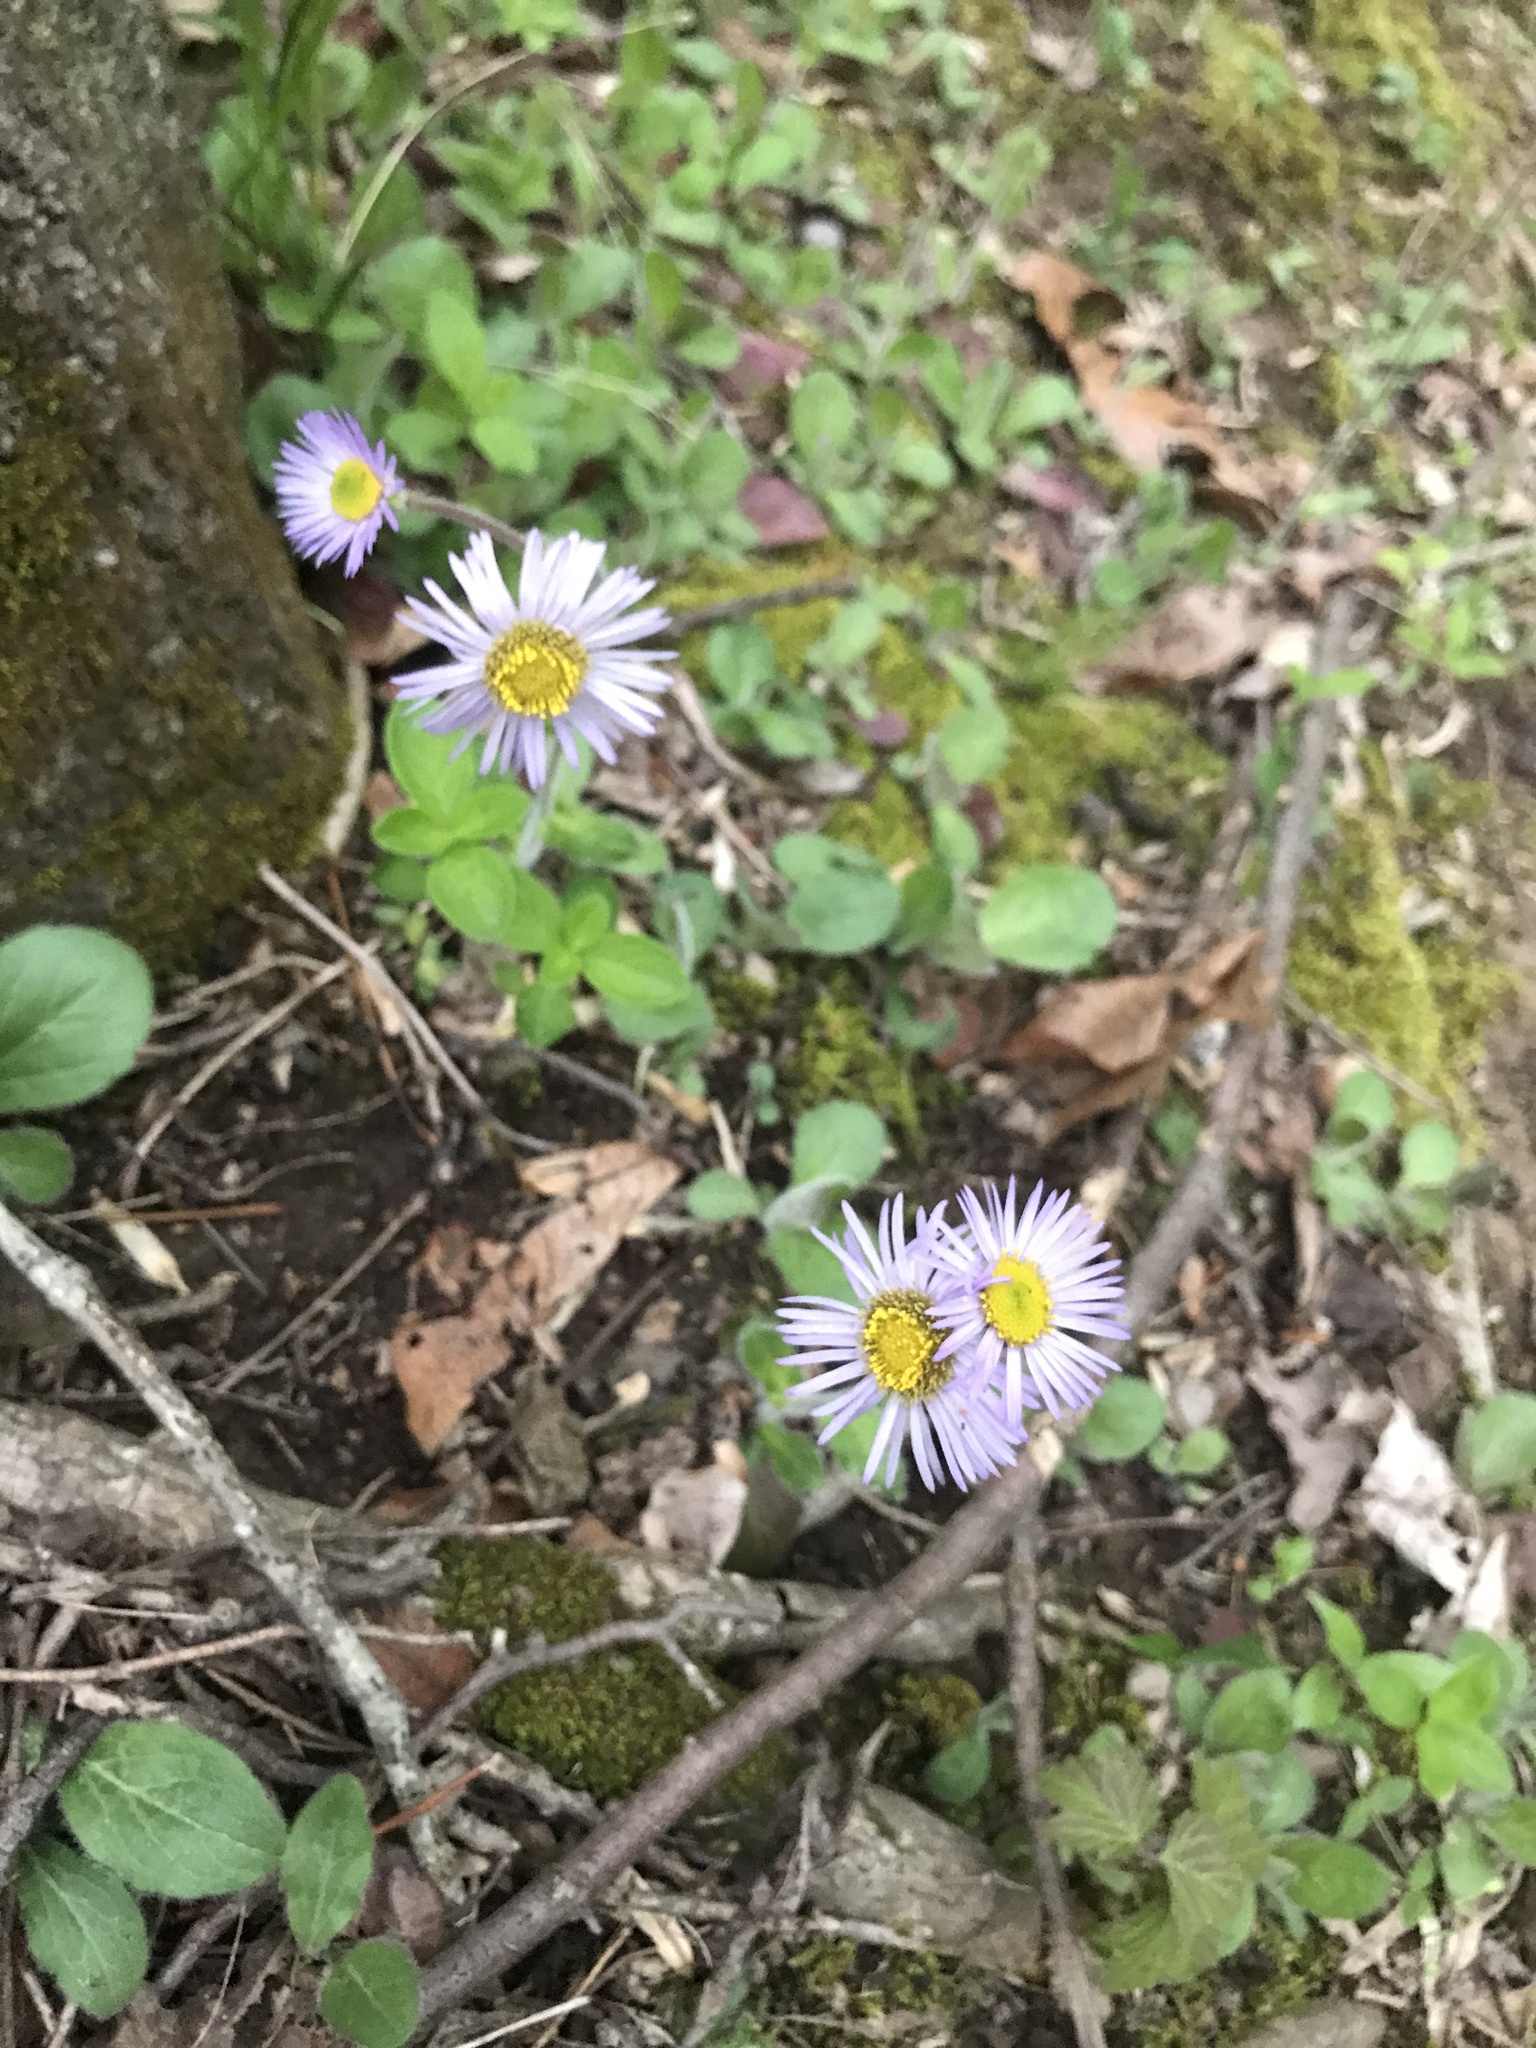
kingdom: Plantae
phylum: Tracheophyta
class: Magnoliopsida
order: Asterales
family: Asteraceae
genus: Erigeron
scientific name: Erigeron pulchellus
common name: Hairy fleabane
